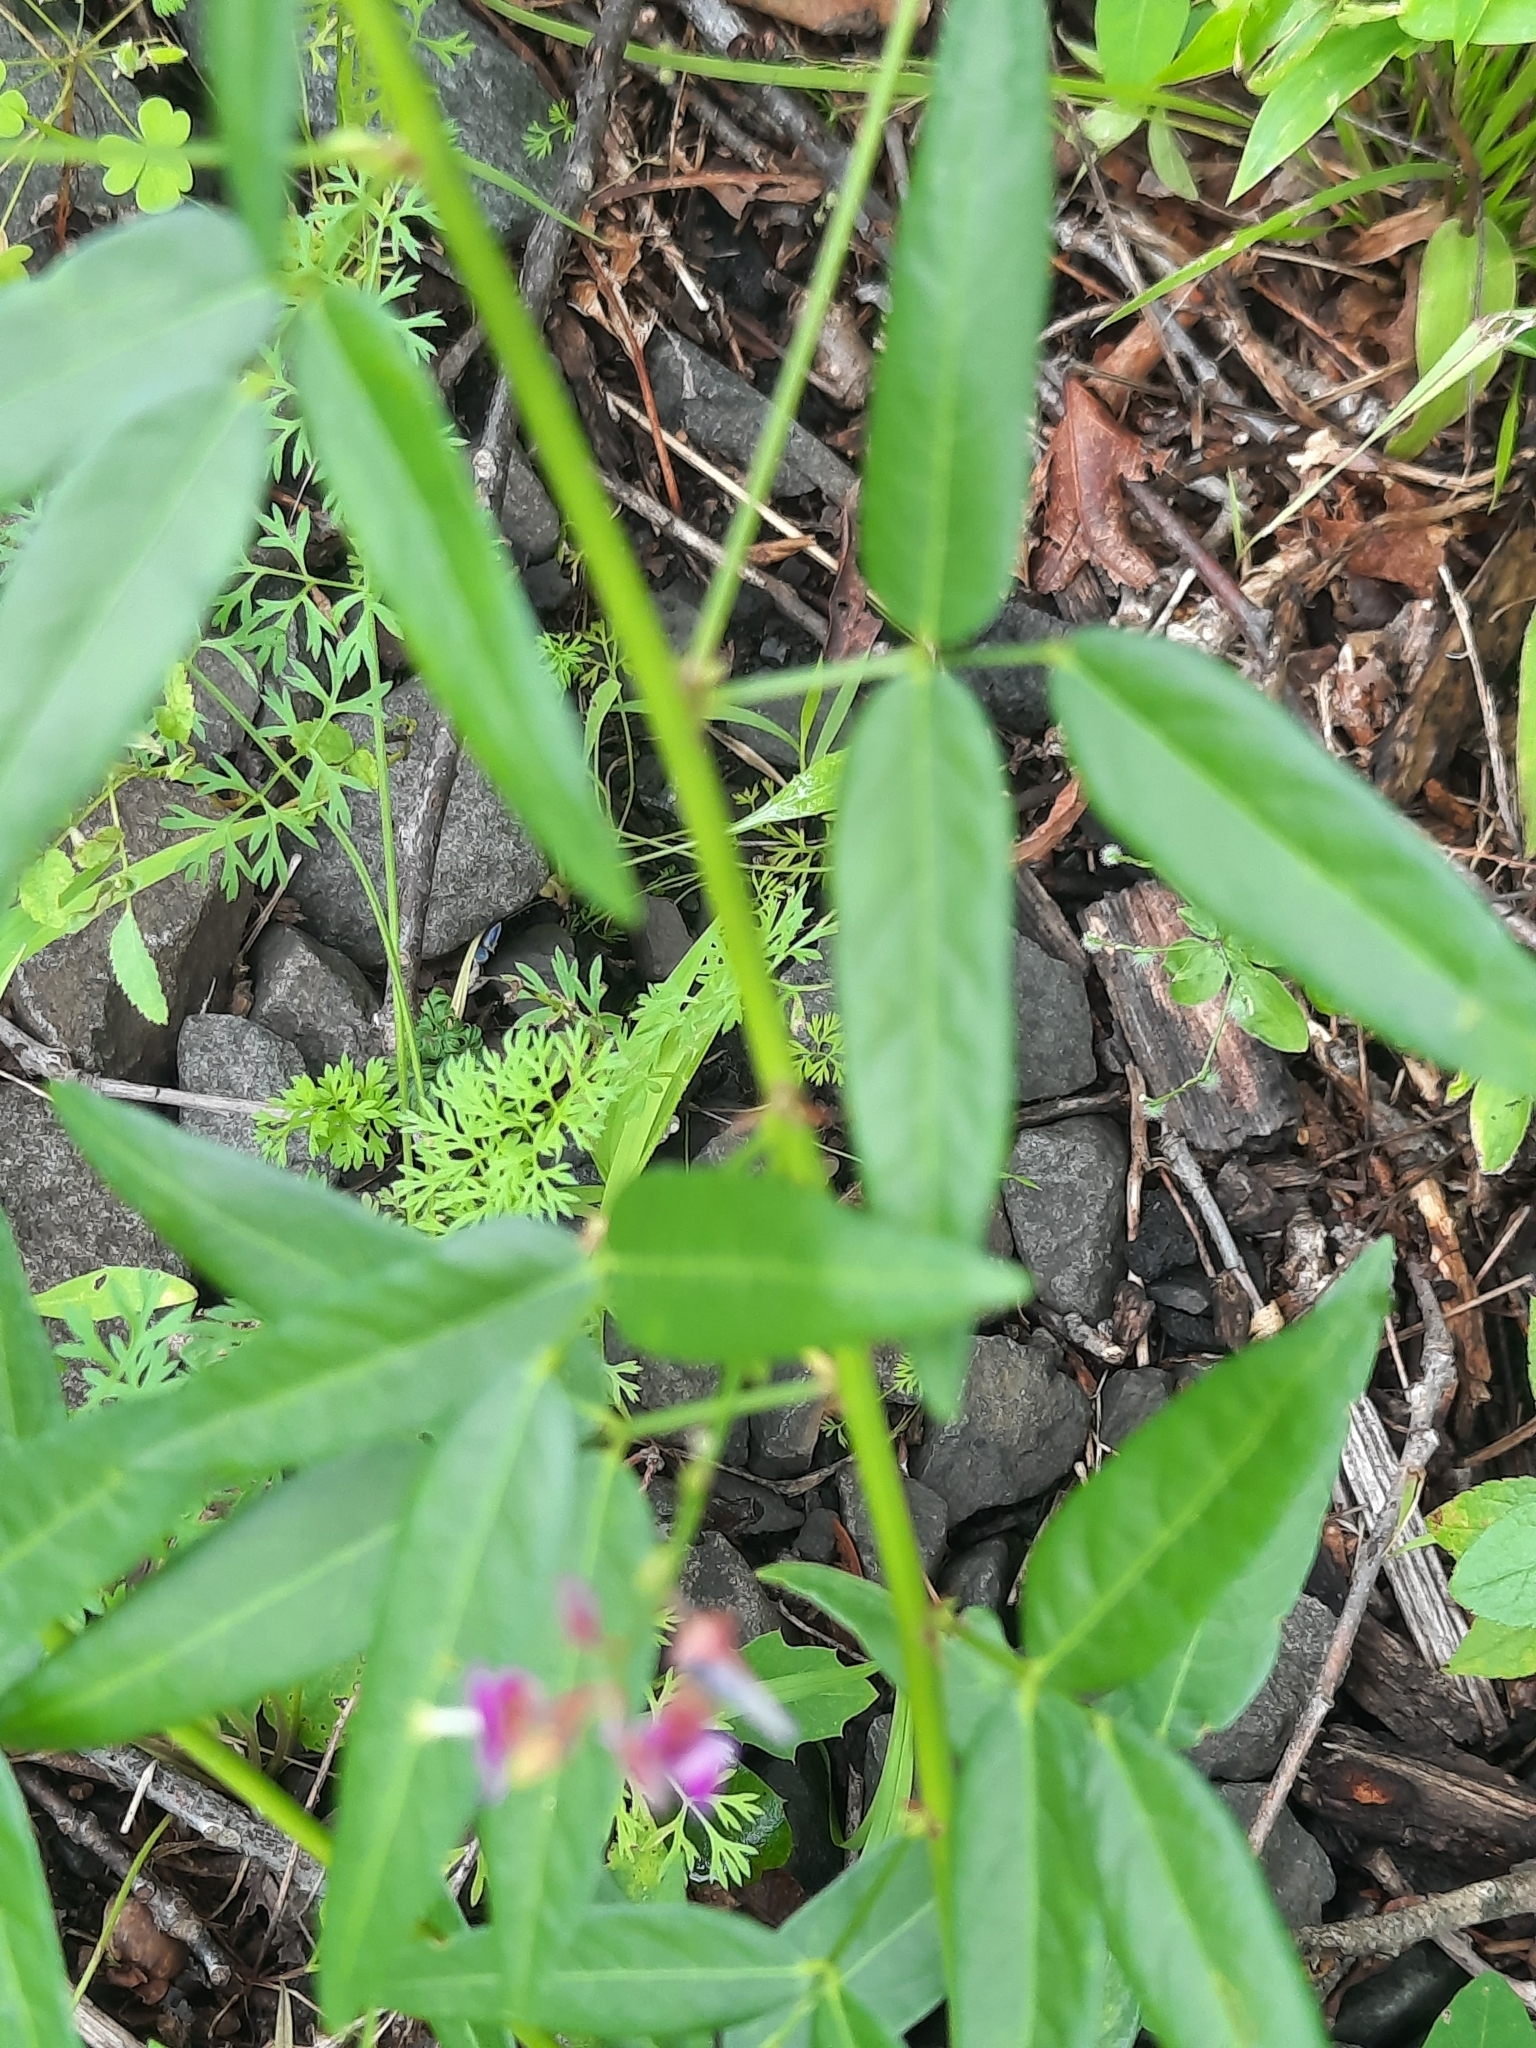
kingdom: Plantae
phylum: Tracheophyta
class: Magnoliopsida
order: Fabales
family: Fabaceae
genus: Desmodium
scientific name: Desmodium paniculatum
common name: Panicled tick-clover
